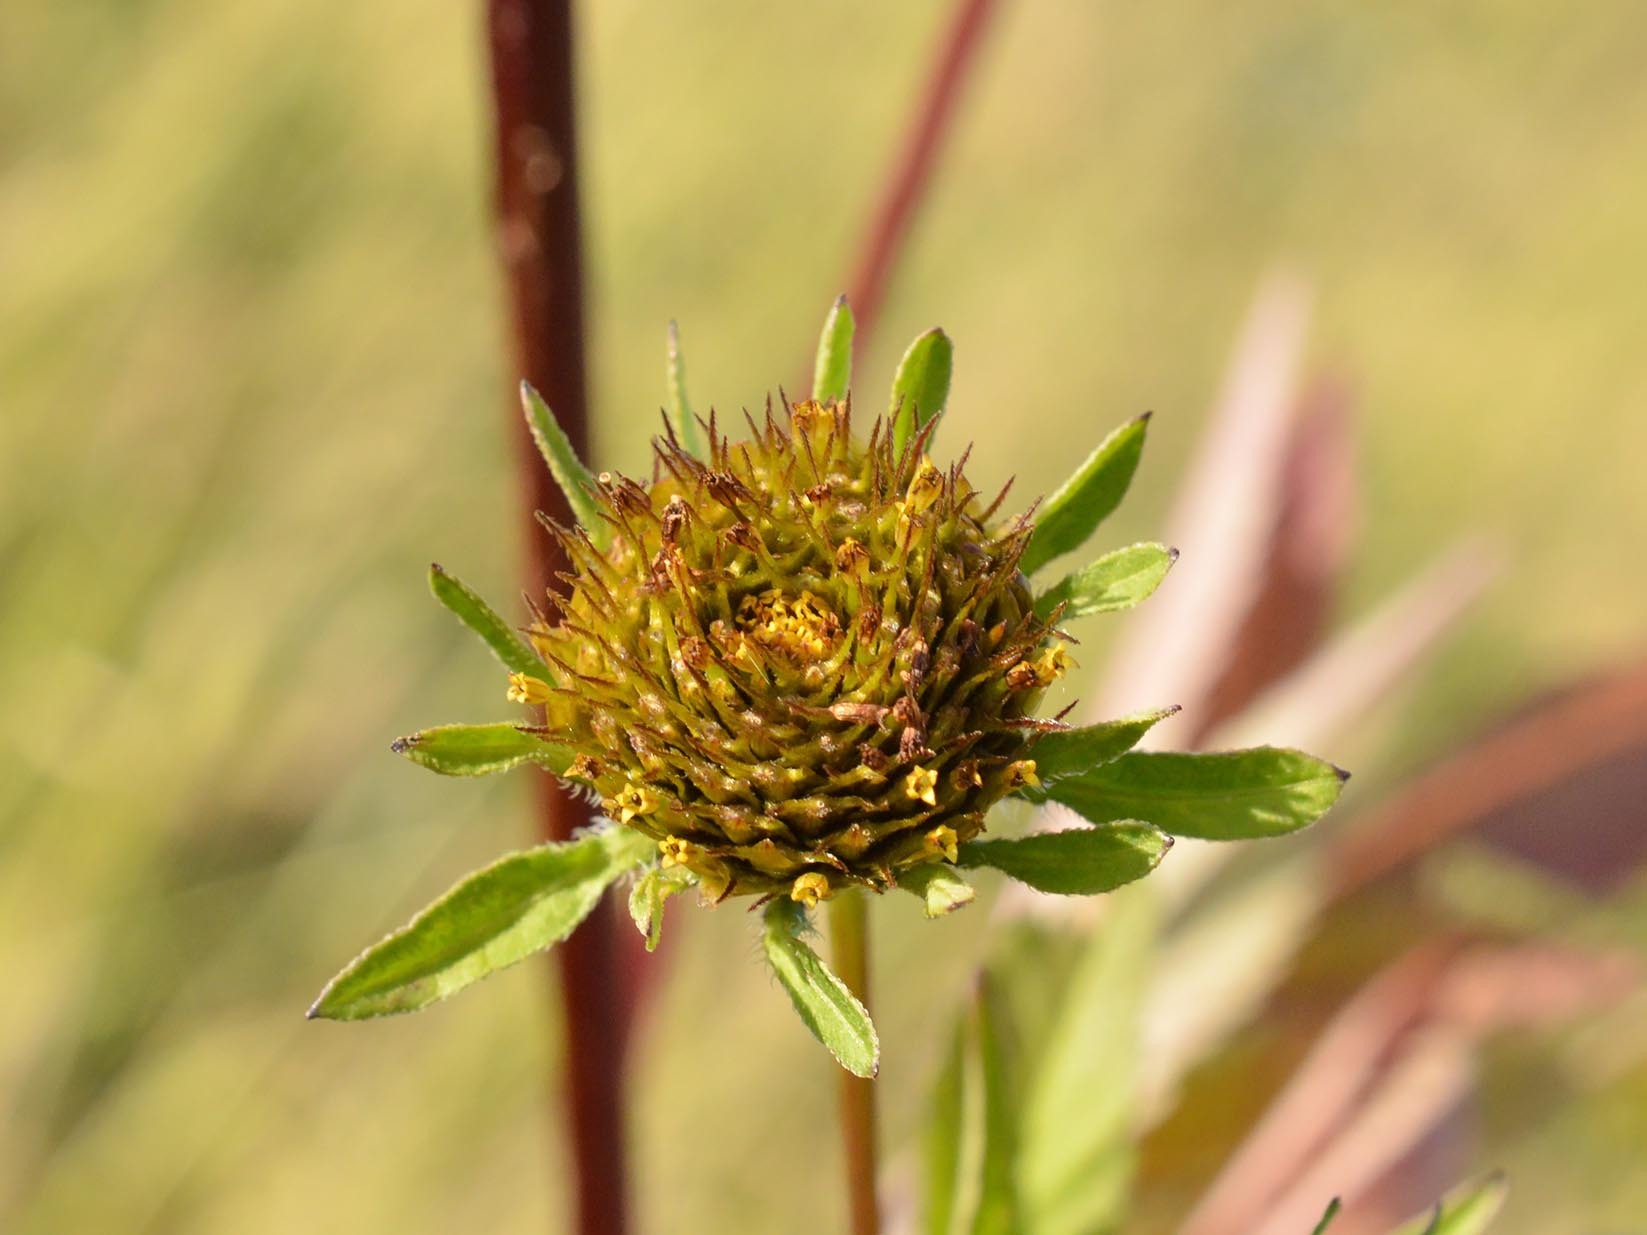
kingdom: Plantae
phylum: Tracheophyta
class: Magnoliopsida
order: Asterales
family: Asteraceae
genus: Bidens
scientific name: Bidens frondosa
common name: Beggarticks
